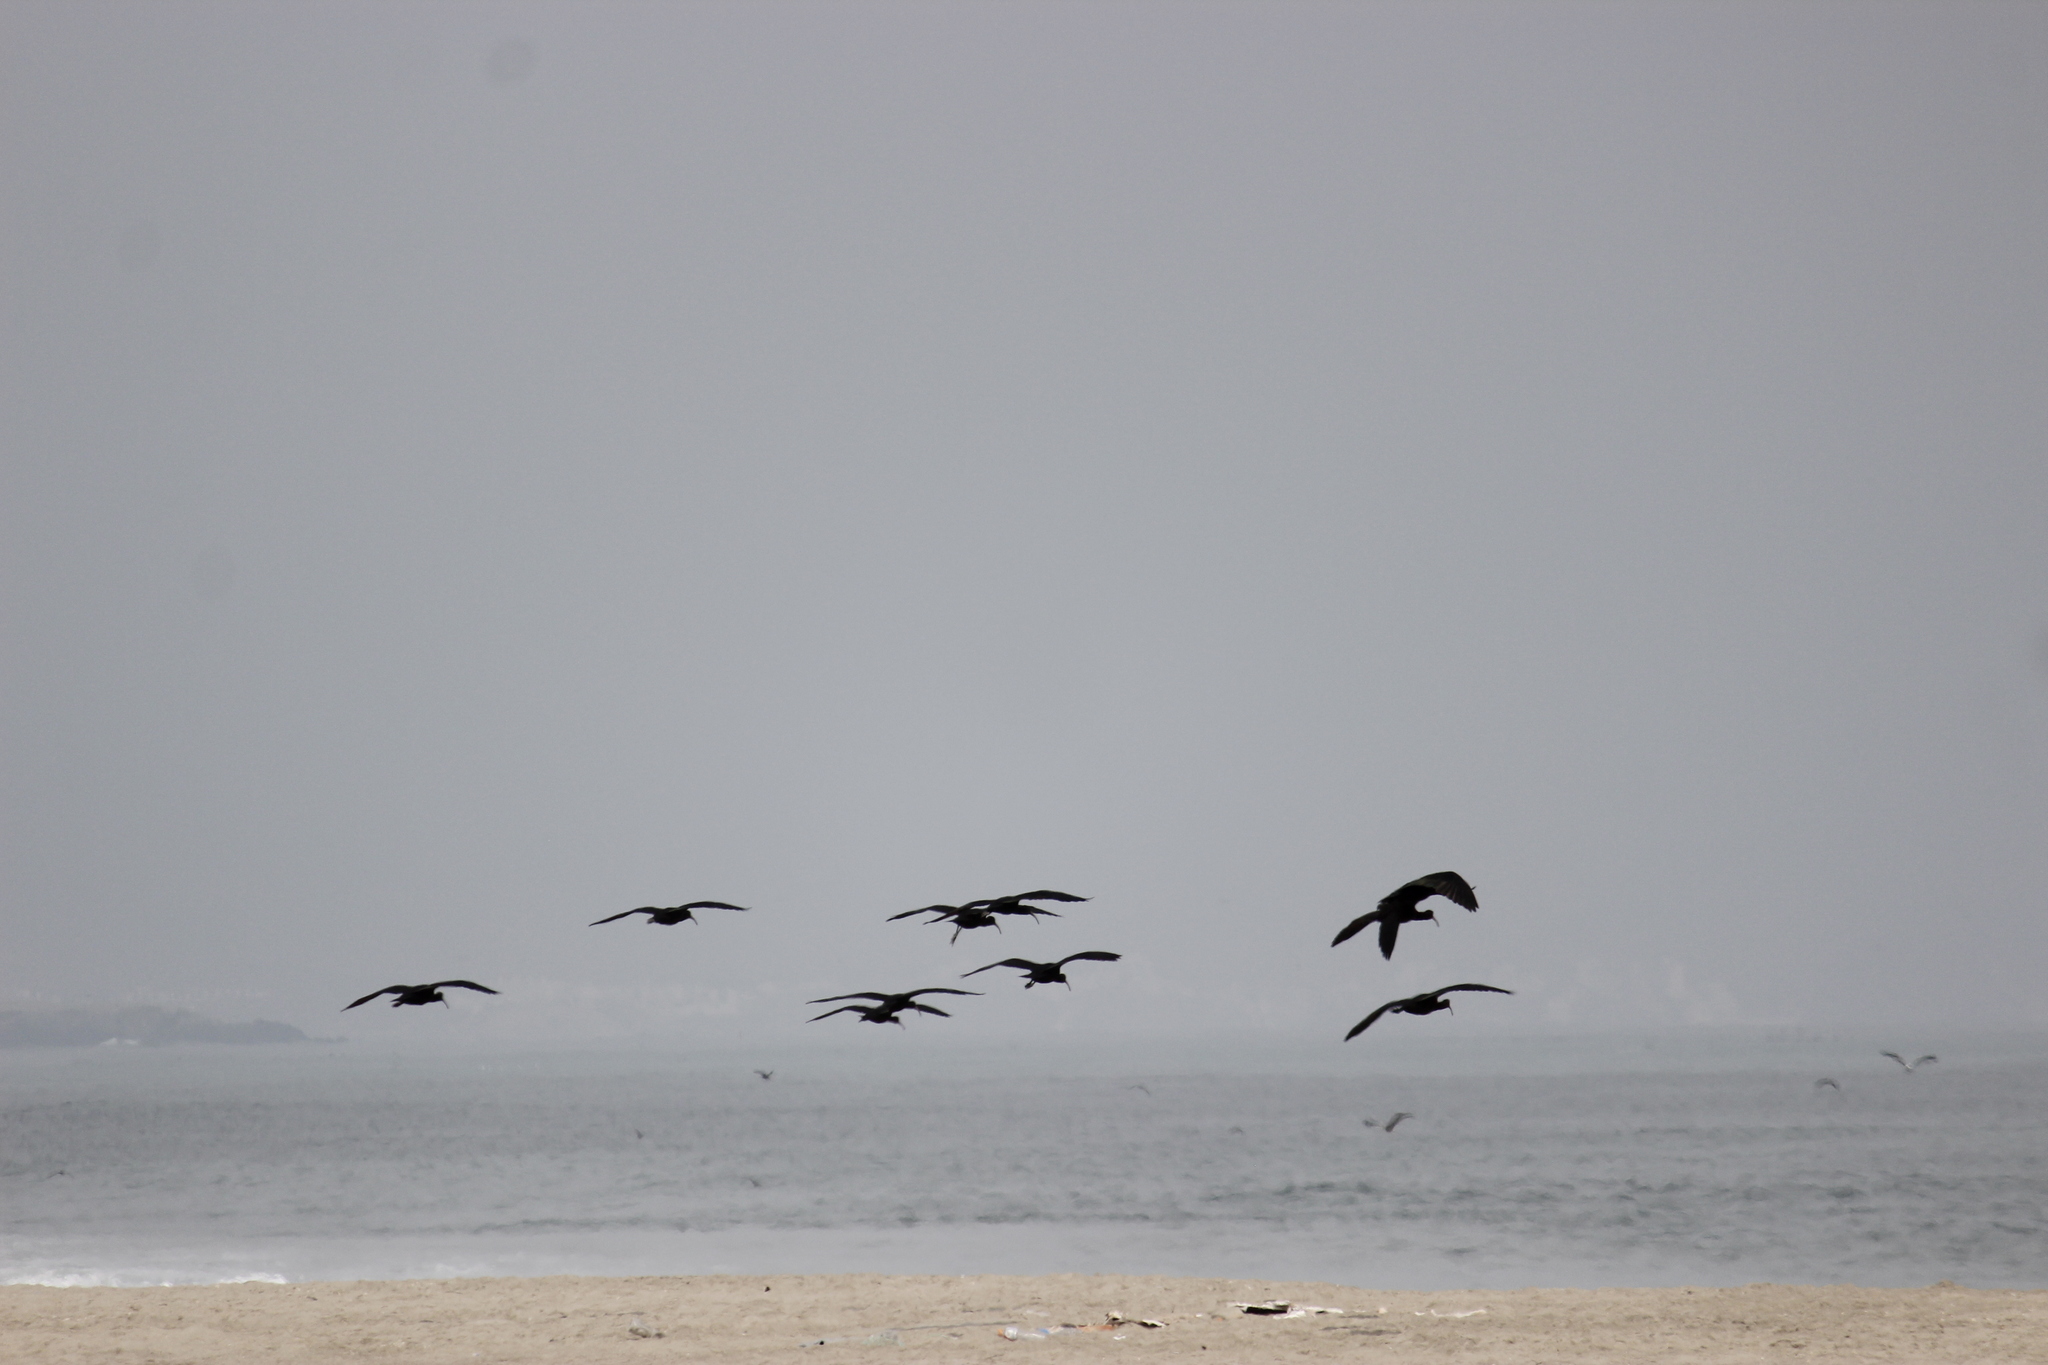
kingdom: Animalia
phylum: Chordata
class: Aves
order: Pelecaniformes
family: Threskiornithidae
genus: Plegadis
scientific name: Plegadis ridgwayi
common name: Puna ibis
